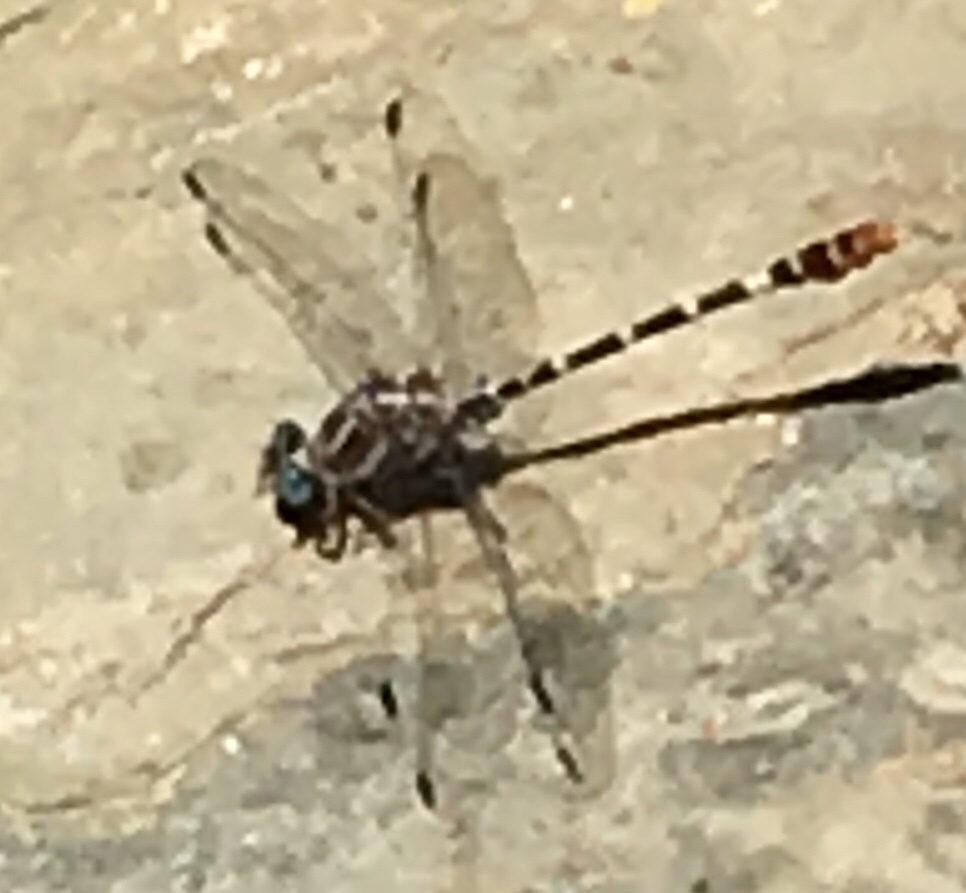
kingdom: Animalia
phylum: Arthropoda
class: Insecta
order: Odonata
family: Gomphidae
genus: Erpetogomphus
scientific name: Erpetogomphus lampropeltis
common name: Serpent ringtail
